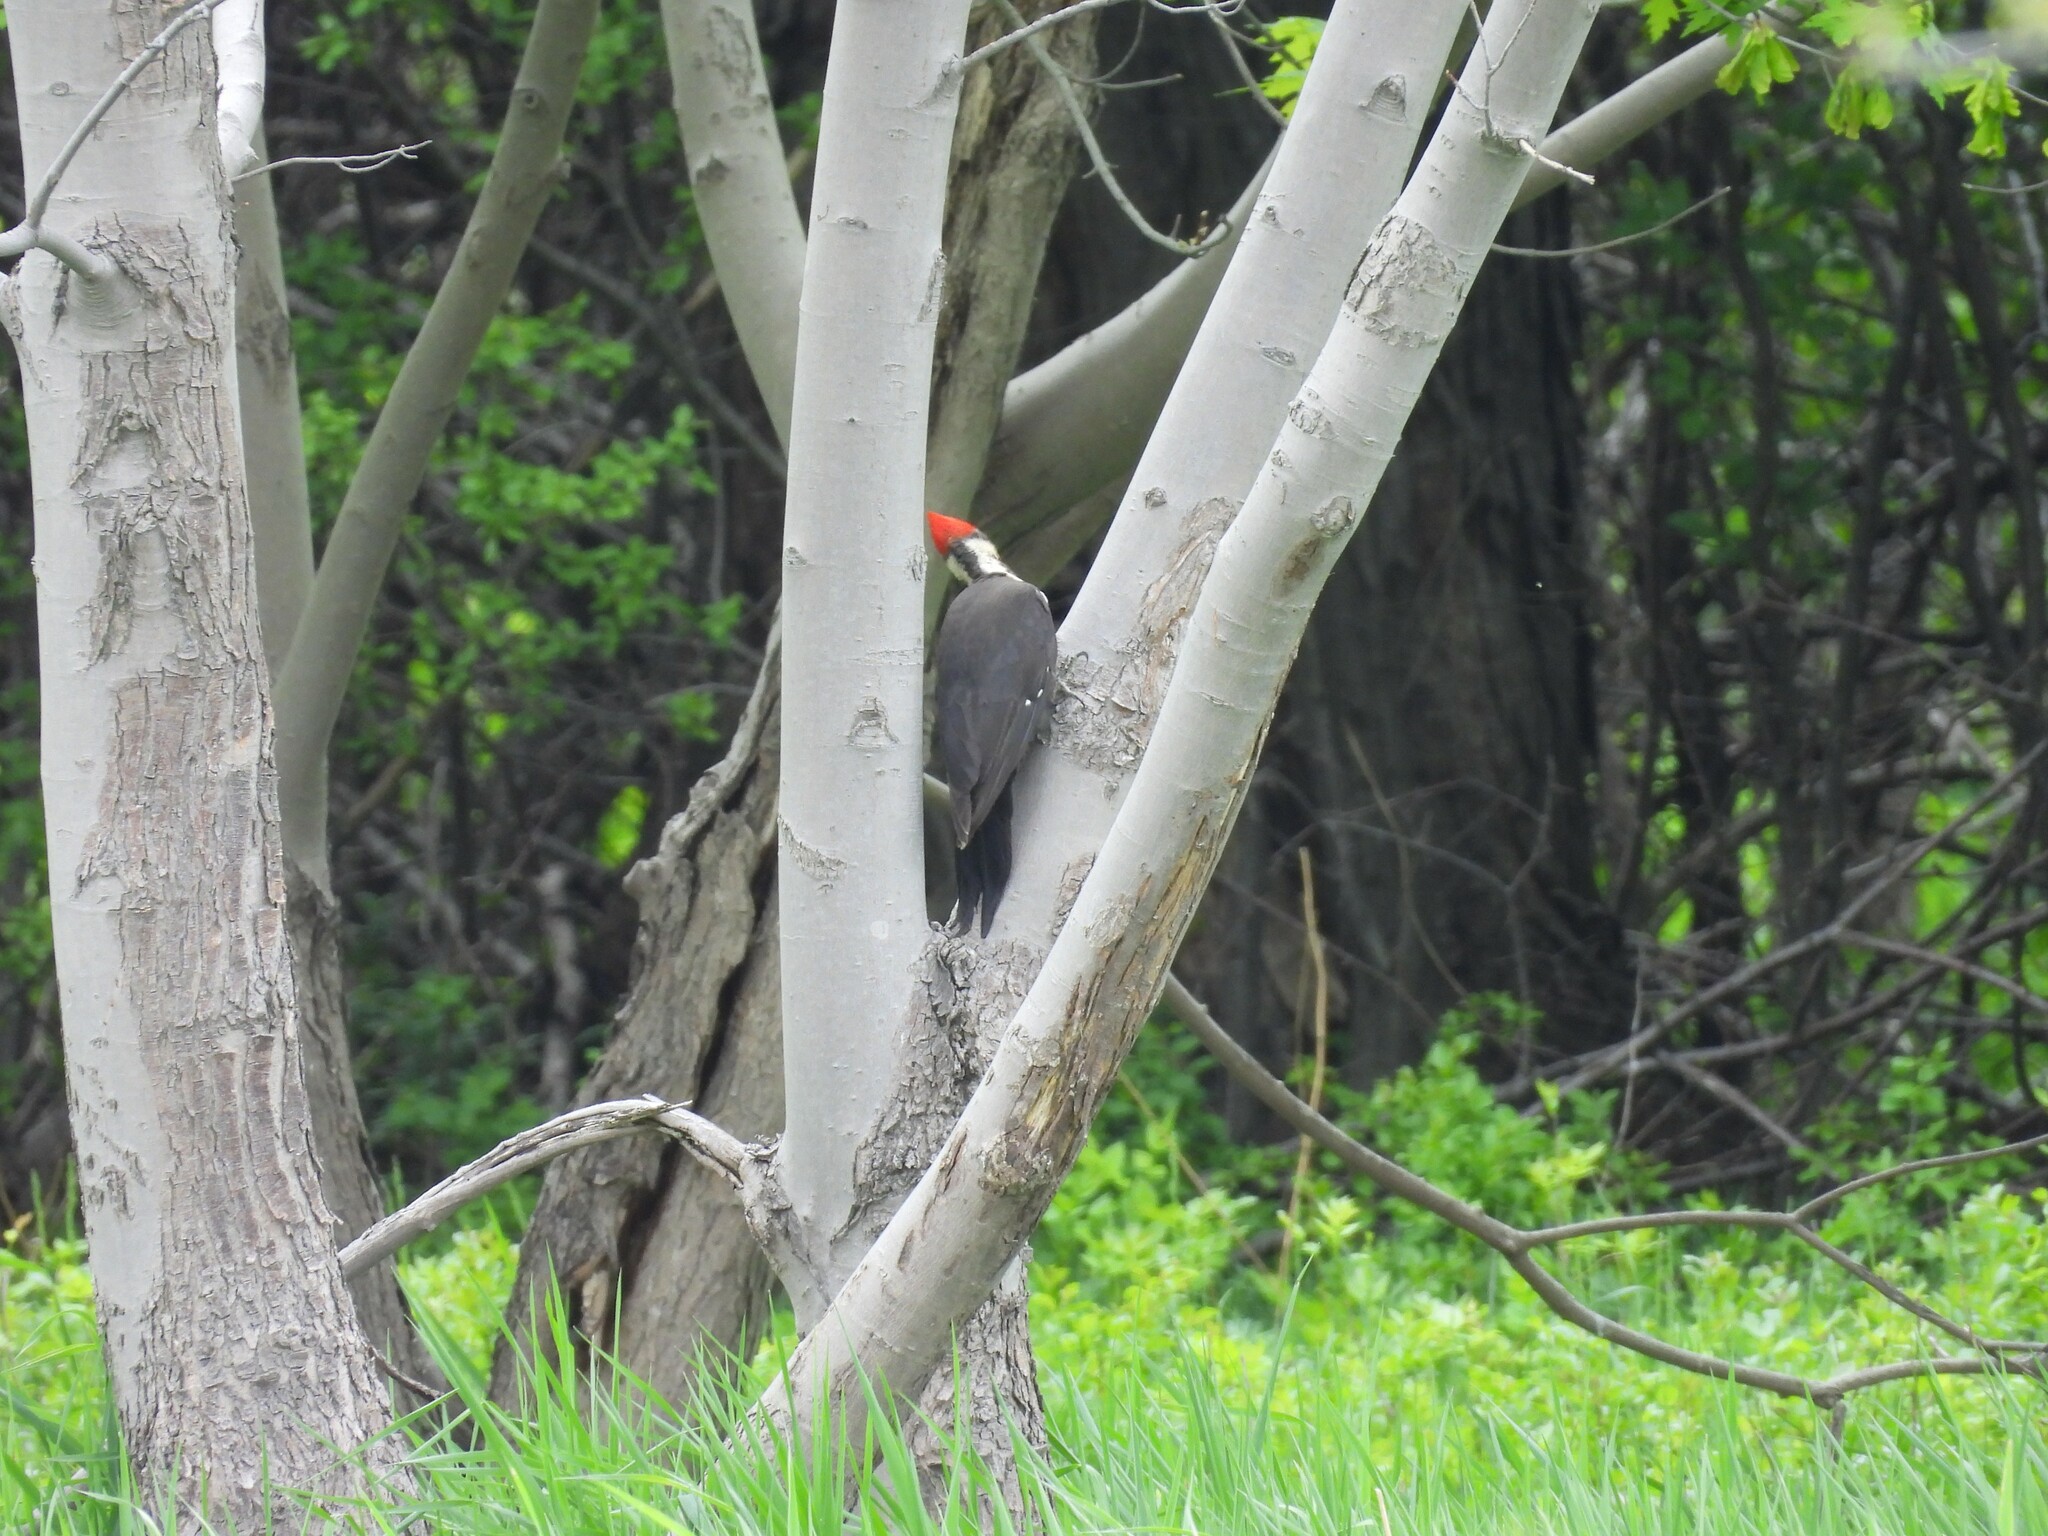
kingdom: Animalia
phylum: Chordata
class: Aves
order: Piciformes
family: Picidae
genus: Dryocopus
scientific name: Dryocopus pileatus
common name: Pileated woodpecker
